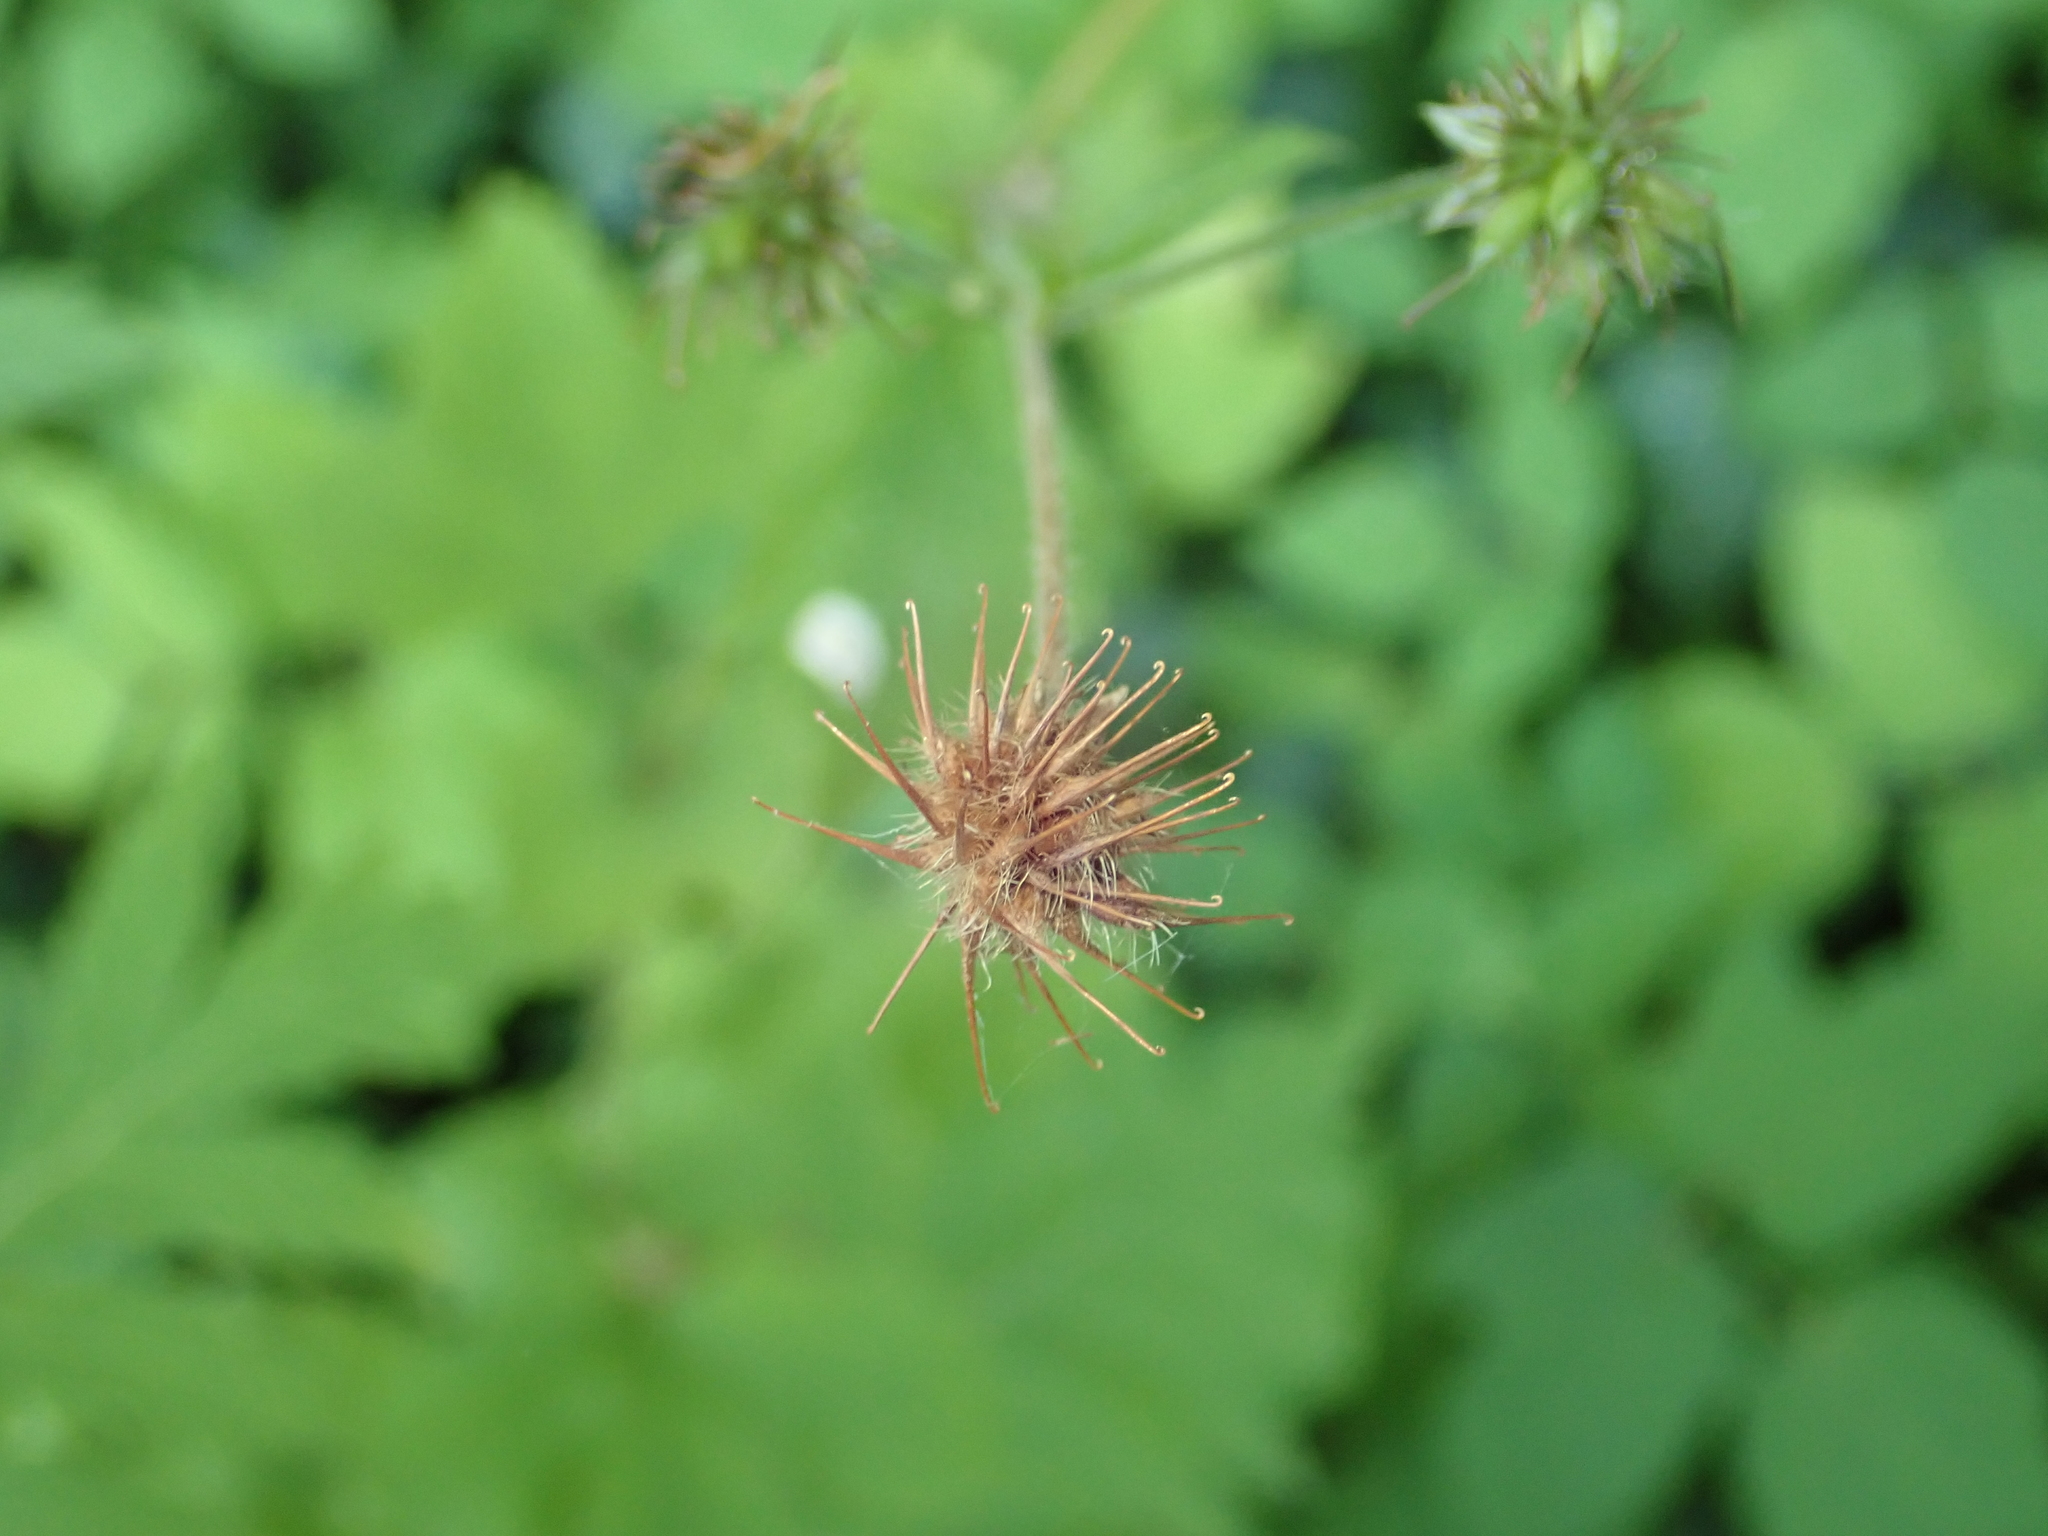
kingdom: Plantae
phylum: Tracheophyta
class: Magnoliopsida
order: Rosales
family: Rosaceae
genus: Geum
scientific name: Geum urbanum
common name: Wood avens
